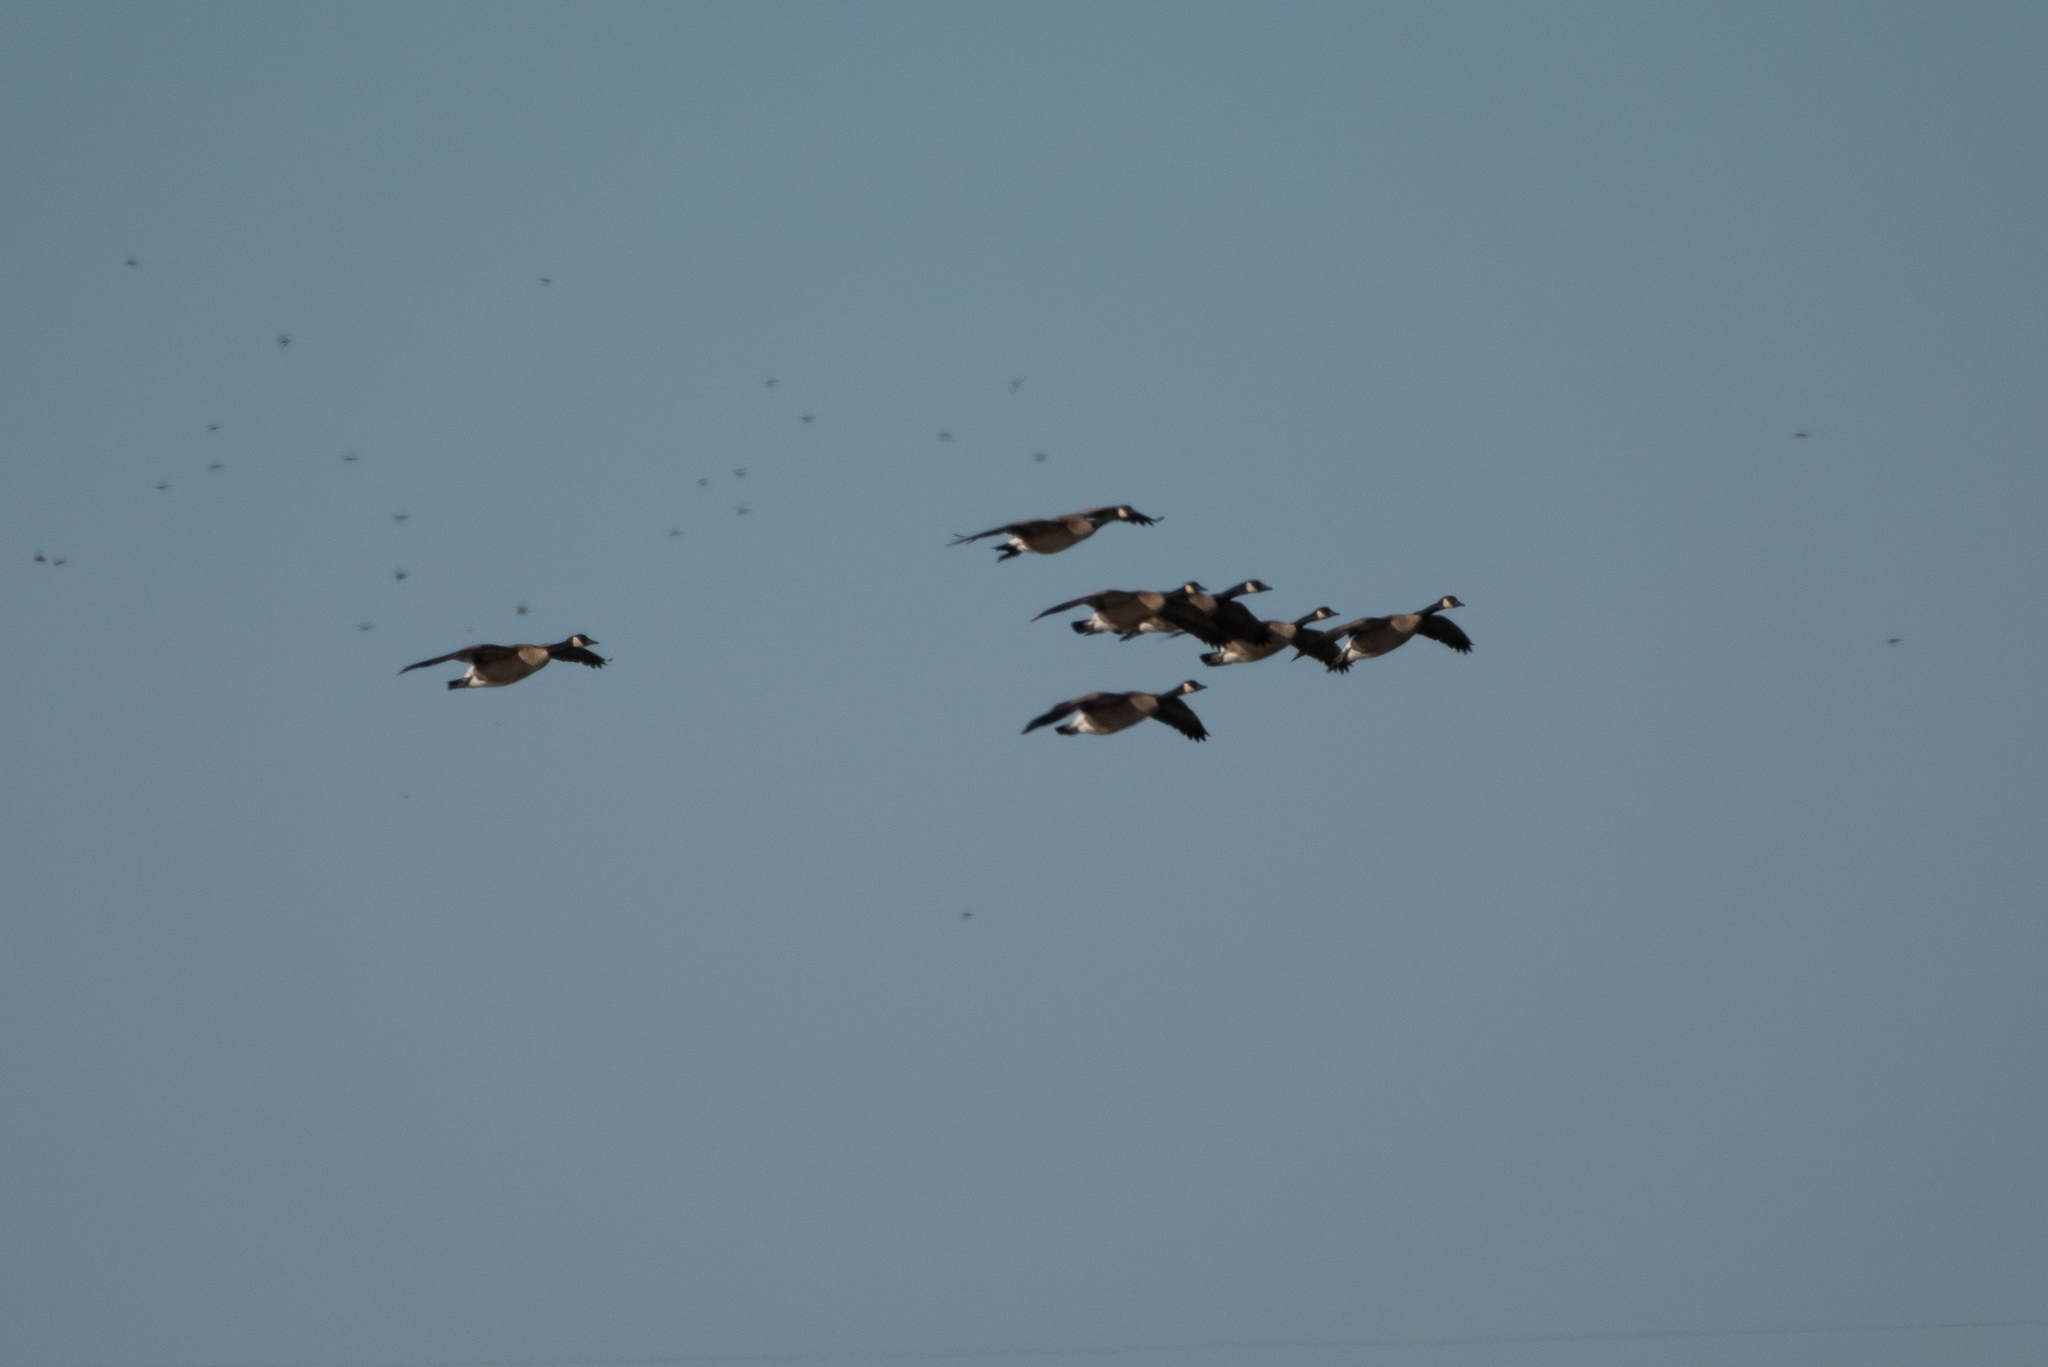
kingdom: Animalia
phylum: Chordata
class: Aves
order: Anseriformes
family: Anatidae
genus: Branta
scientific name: Branta canadensis
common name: Canada goose
